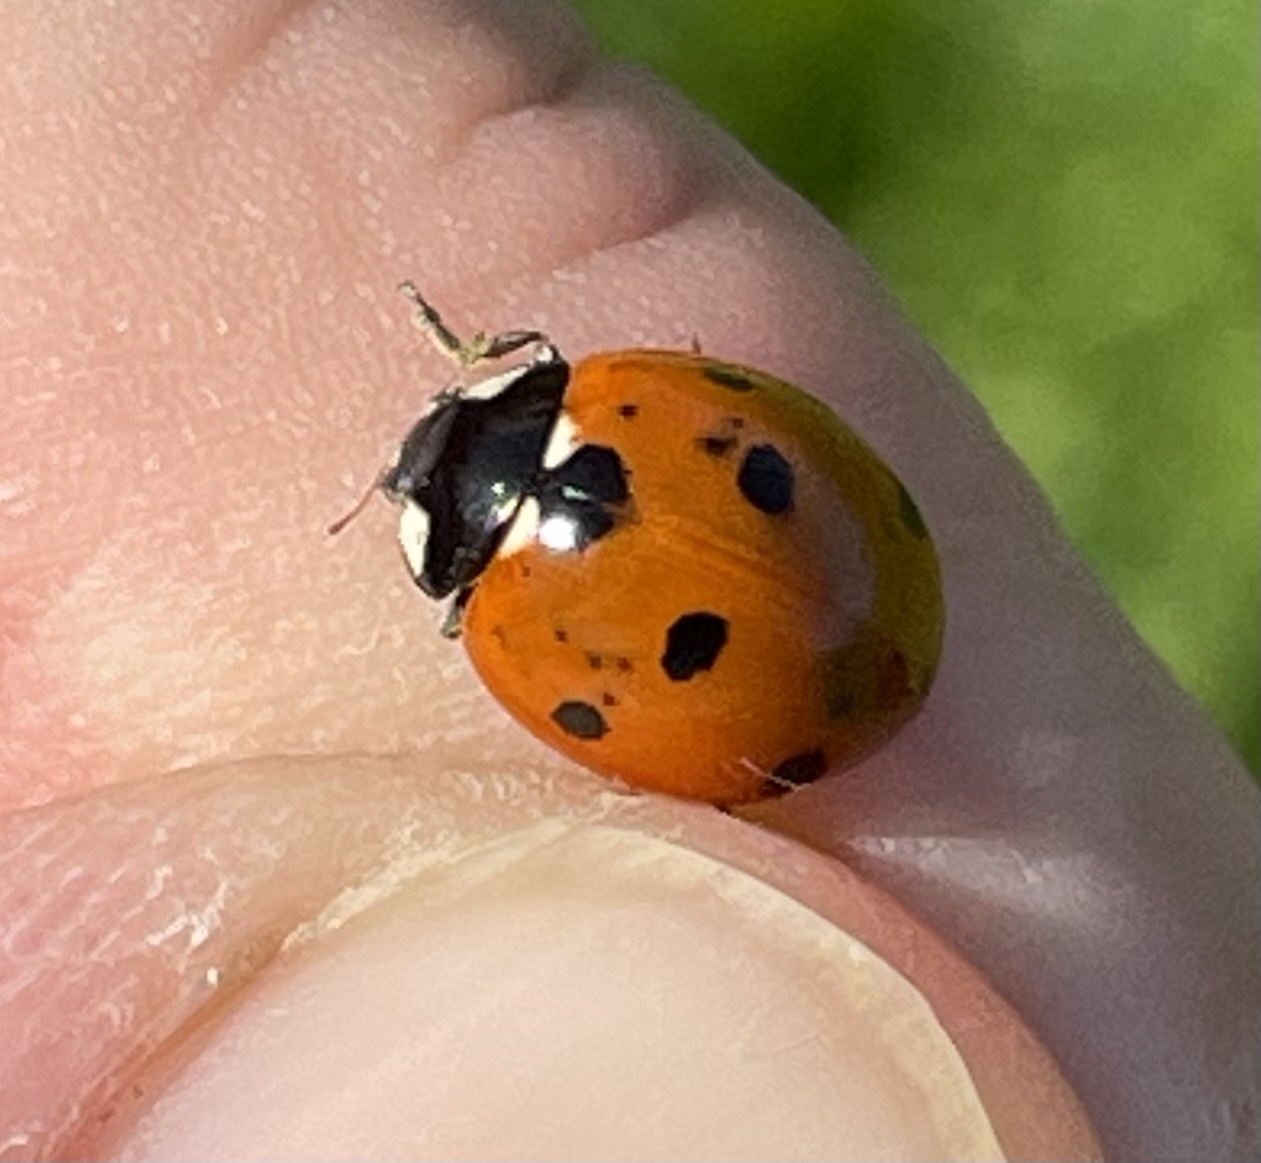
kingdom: Animalia
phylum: Arthropoda
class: Insecta
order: Coleoptera
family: Coccinellidae
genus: Coccinella
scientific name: Coccinella septempunctata
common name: Sevenspotted lady beetle
